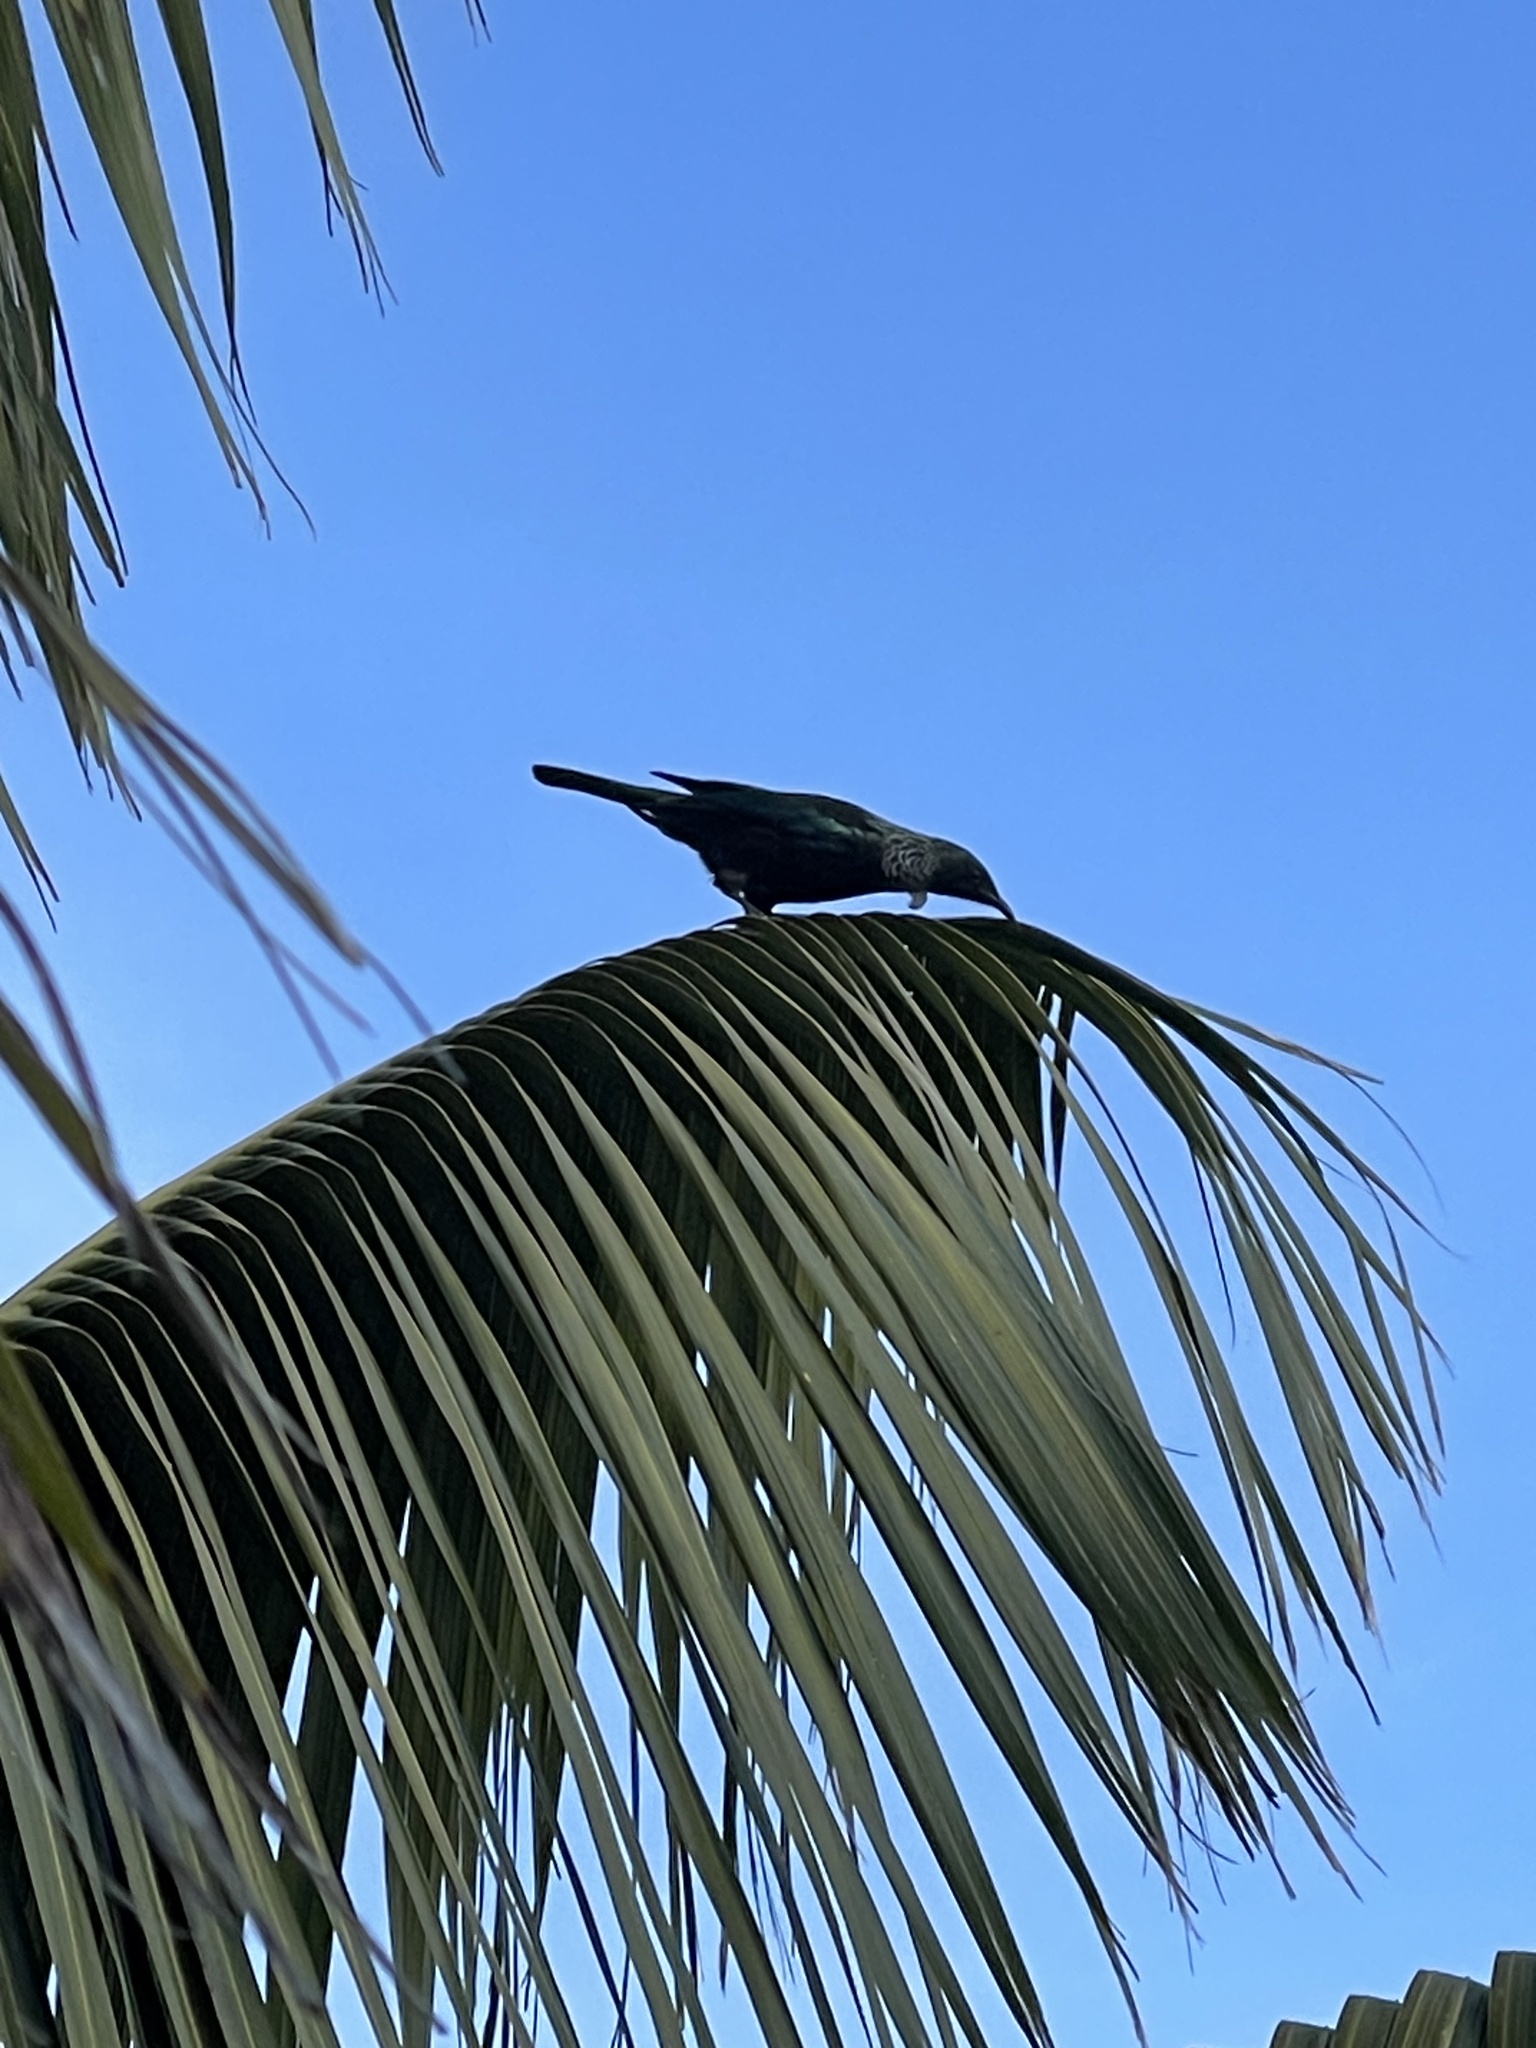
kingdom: Animalia
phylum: Chordata
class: Aves
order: Passeriformes
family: Meliphagidae
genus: Prosthemadera
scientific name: Prosthemadera novaeseelandiae
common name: Tui
